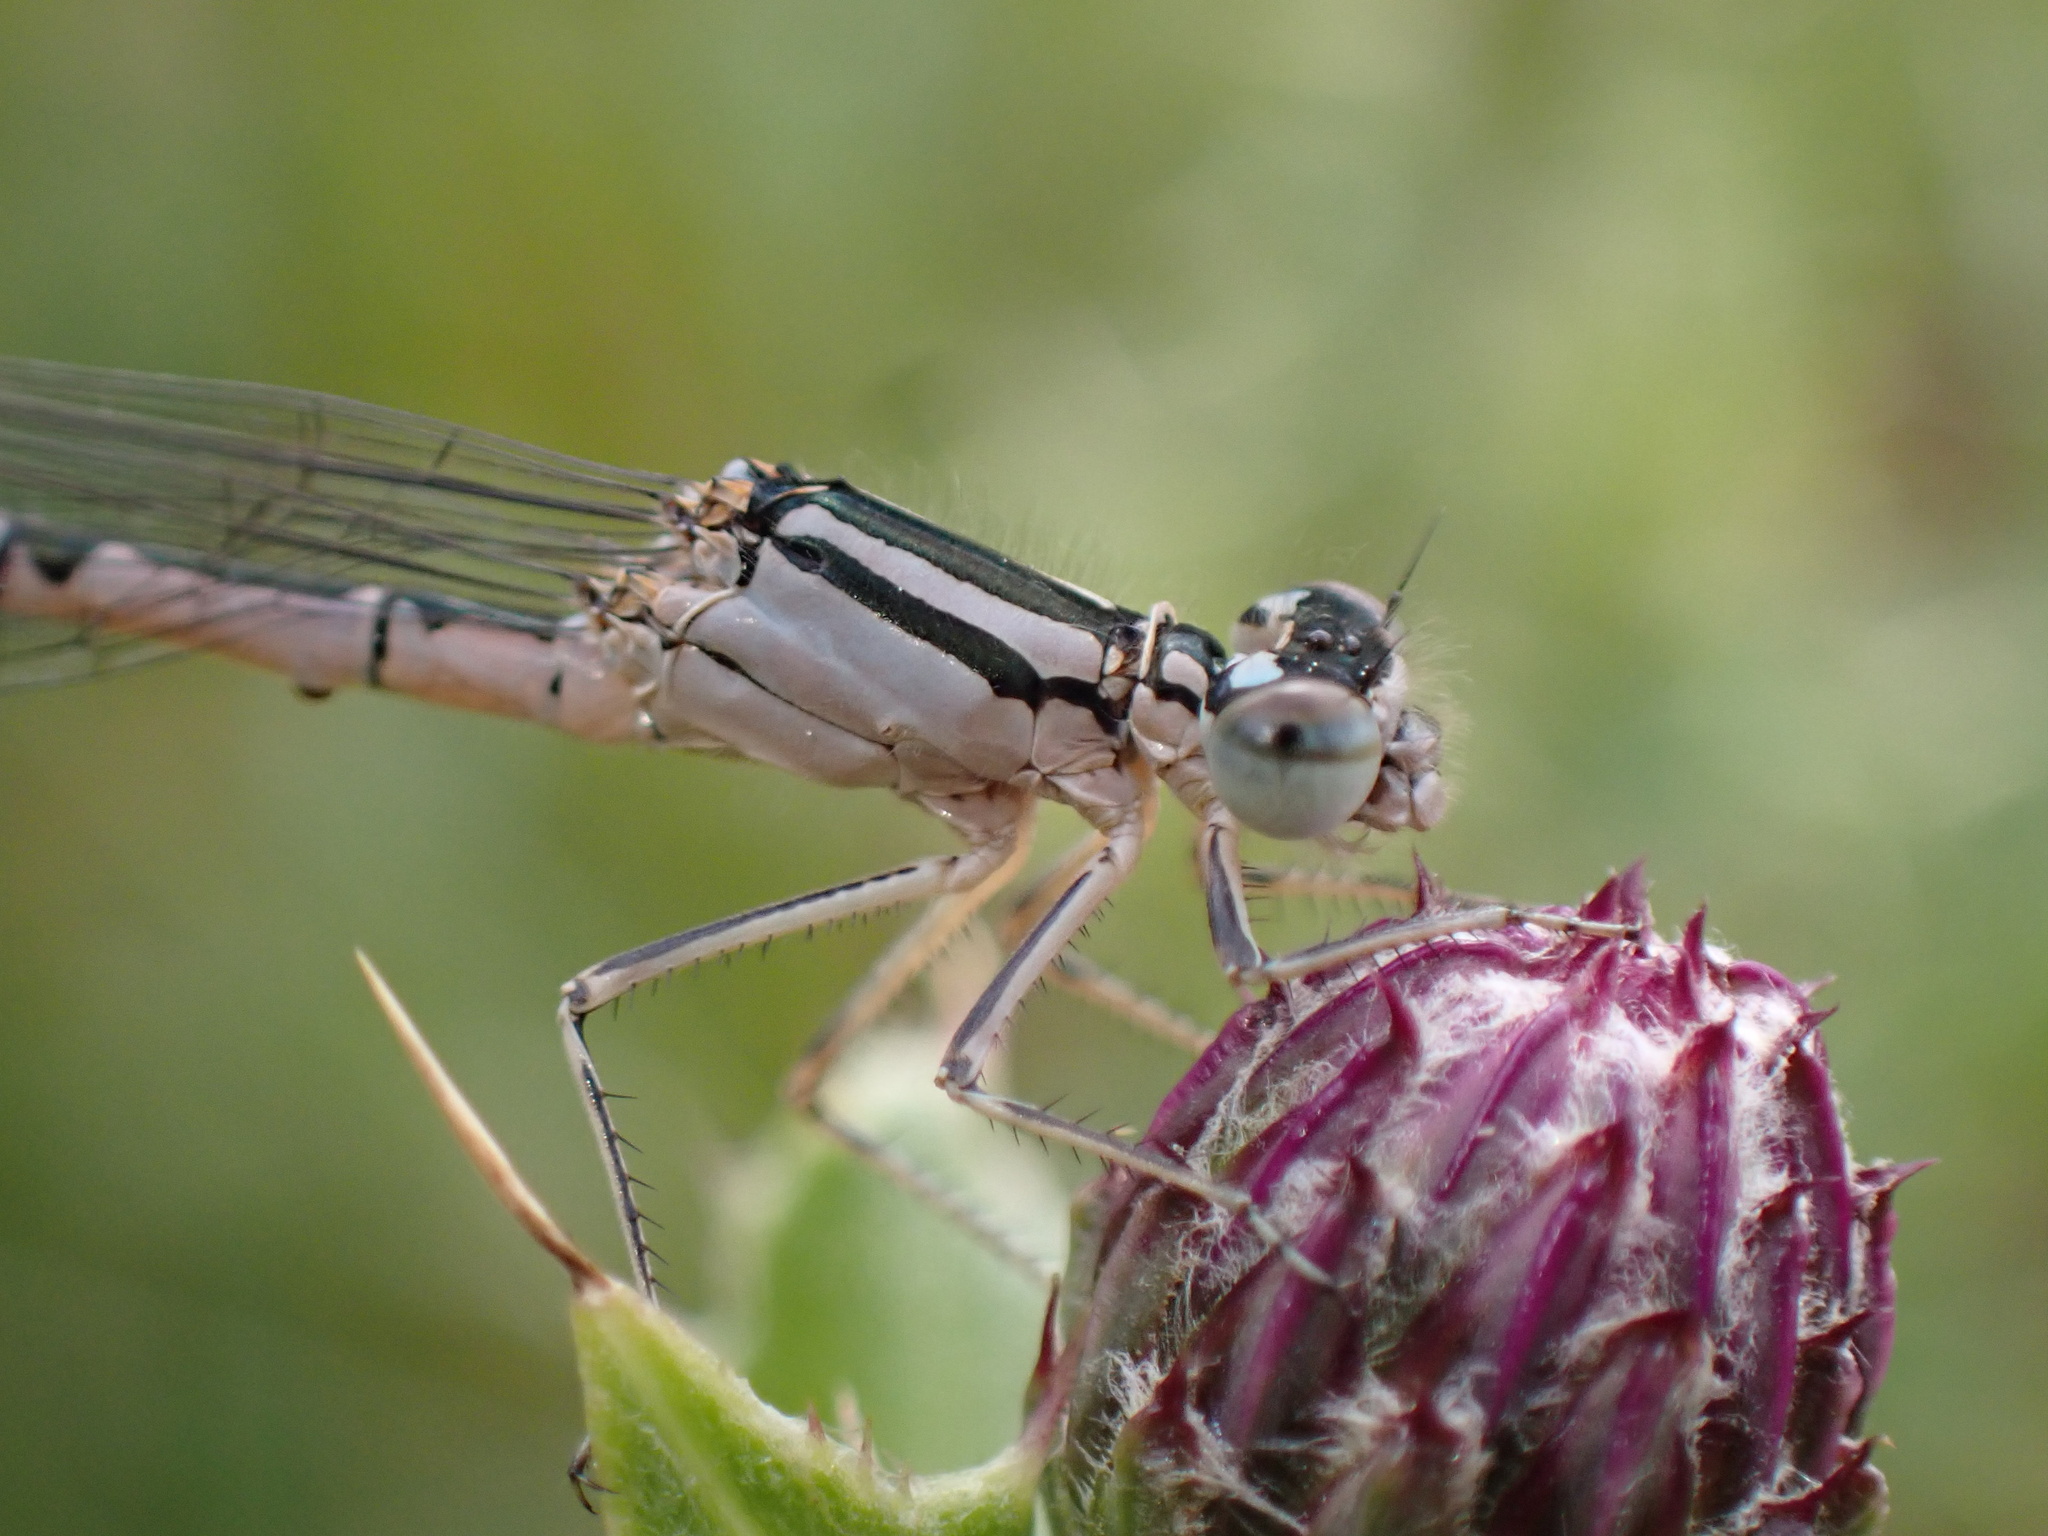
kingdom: Animalia
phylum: Arthropoda
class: Insecta
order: Odonata
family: Coenagrionidae
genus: Enallagma
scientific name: Enallagma cyathigerum
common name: Common blue damselfly
